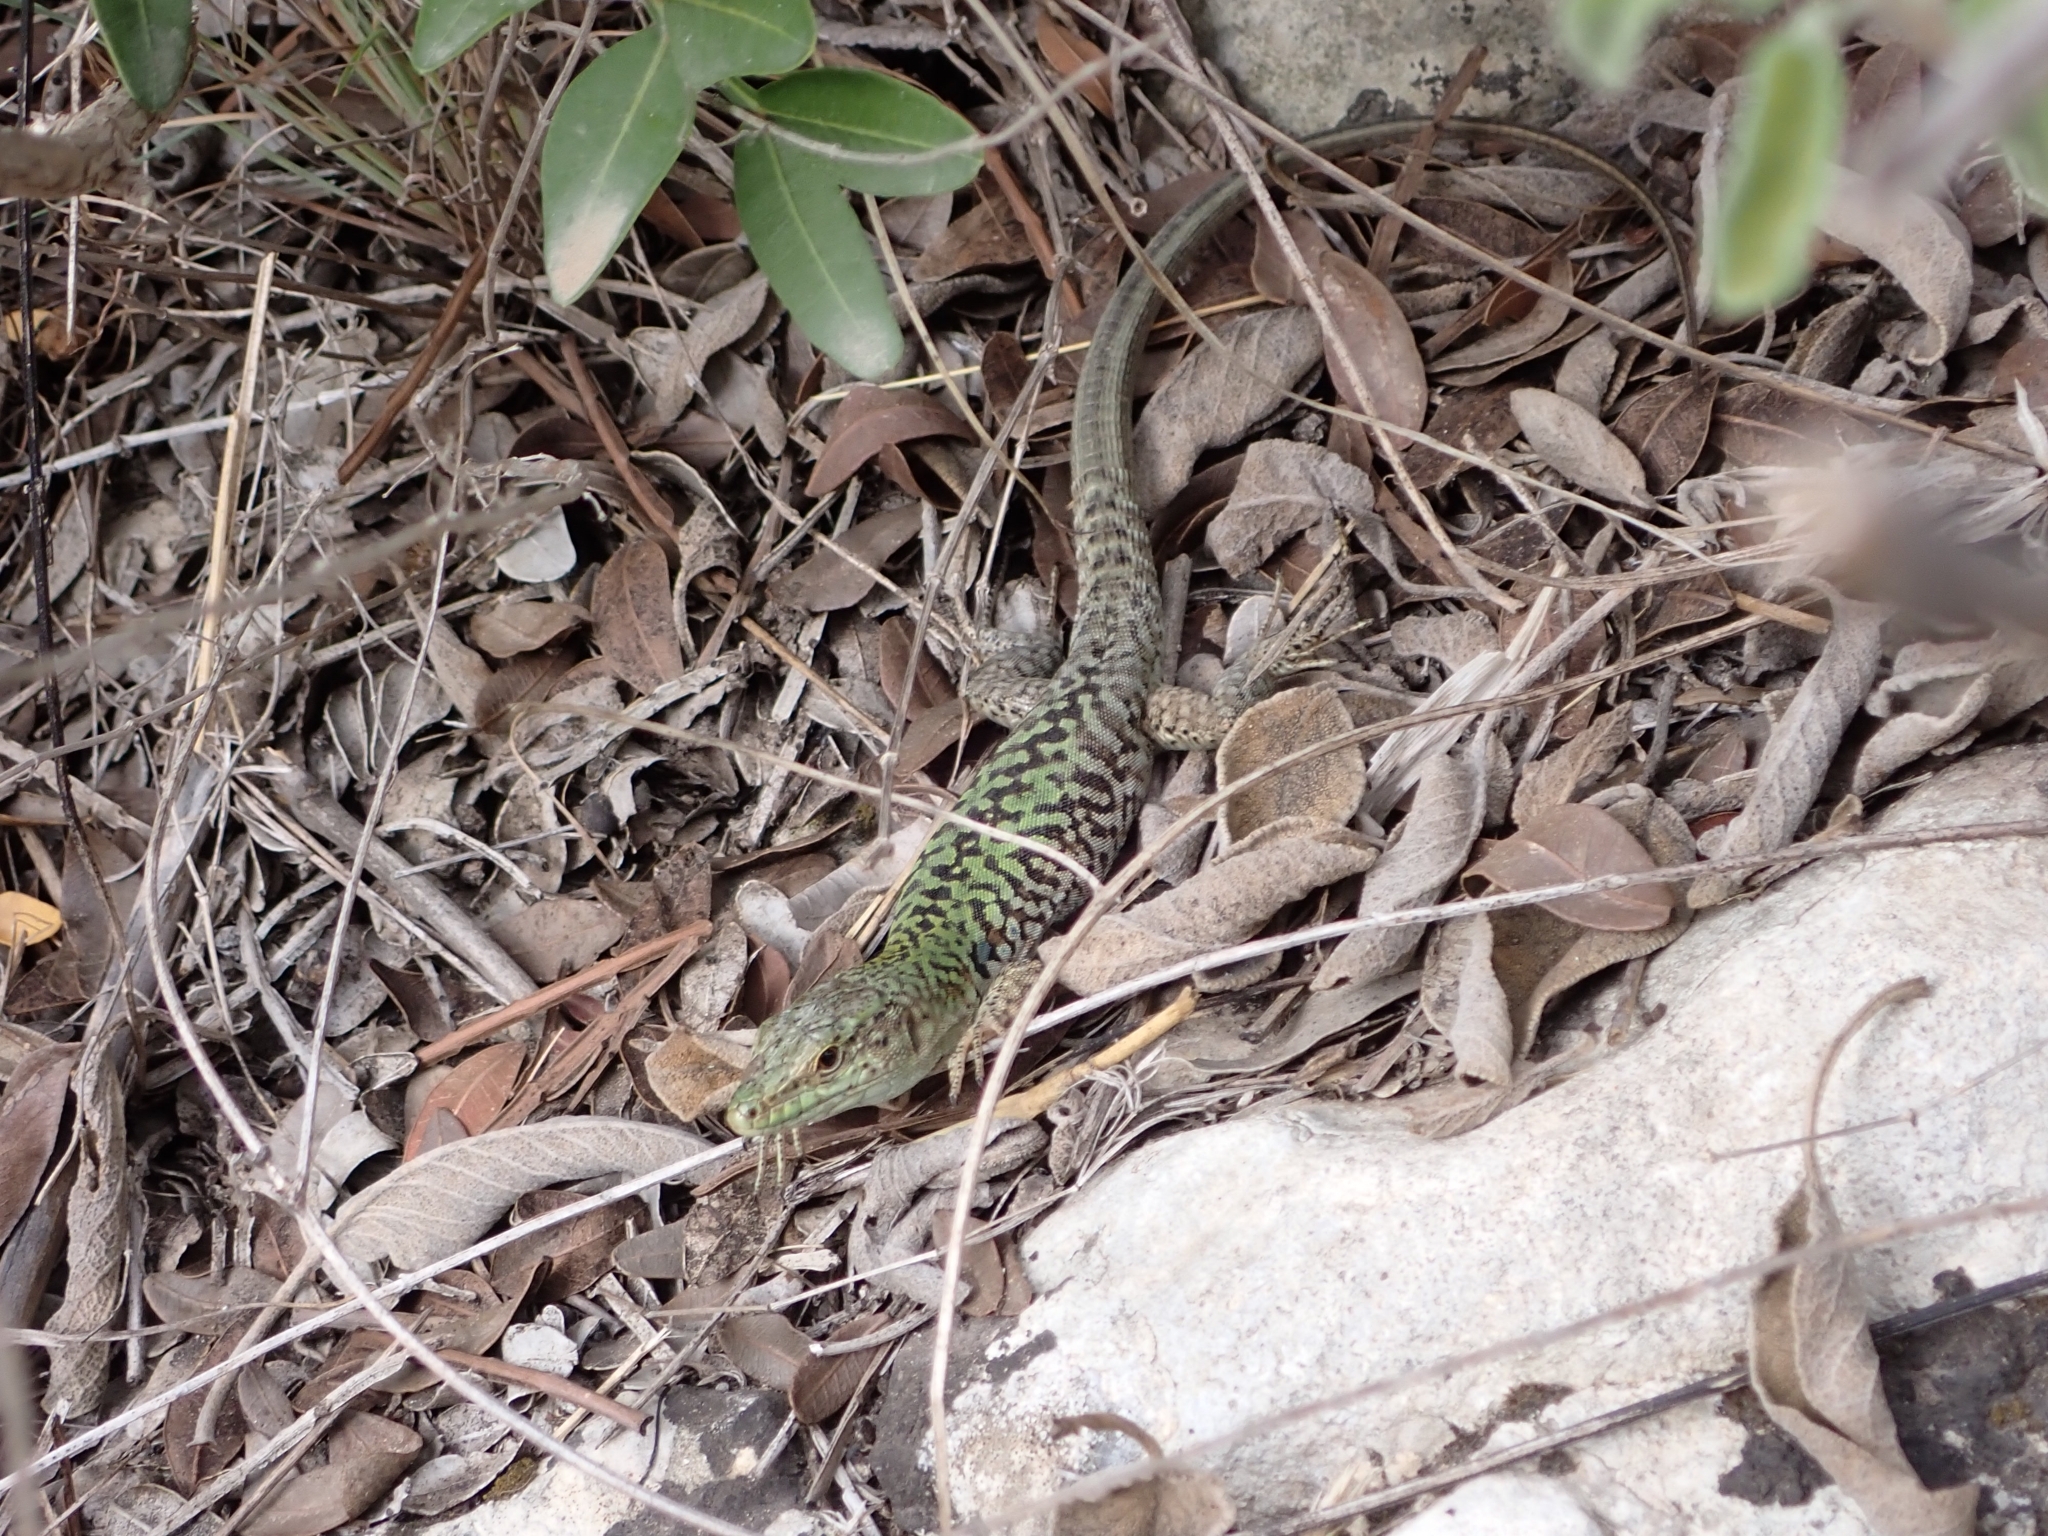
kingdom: Animalia
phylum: Chordata
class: Squamata
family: Lacertidae
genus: Podarcis
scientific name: Podarcis siculus
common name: Italian wall lizard
